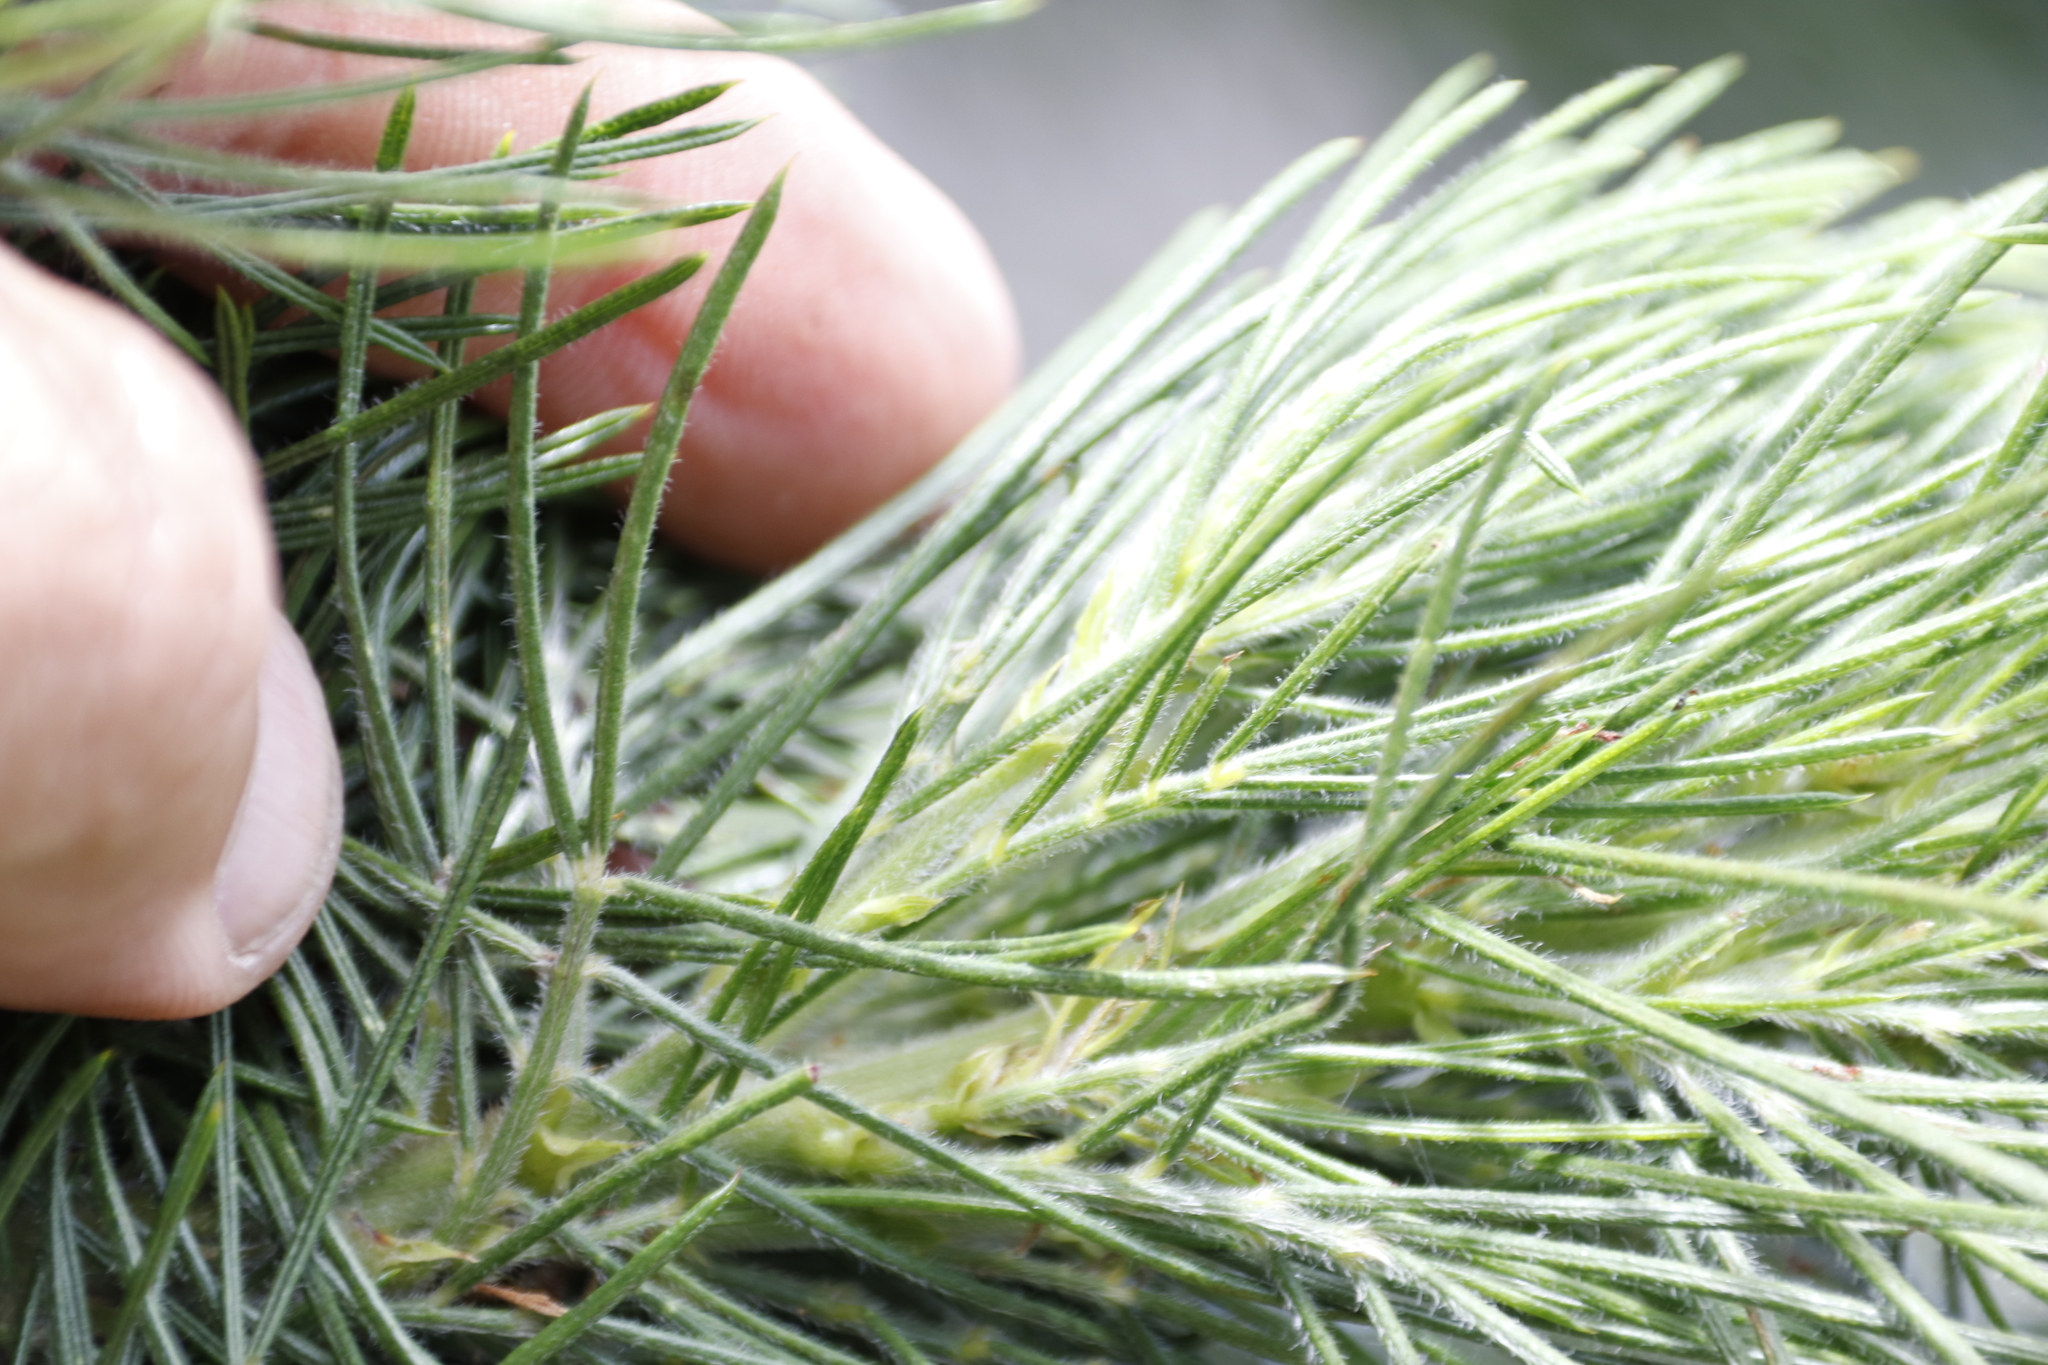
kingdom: Plantae
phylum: Tracheophyta
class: Magnoliopsida
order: Fabales
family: Fabaceae
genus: Psoralea
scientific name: Psoralea pinnata
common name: African scurfpea
